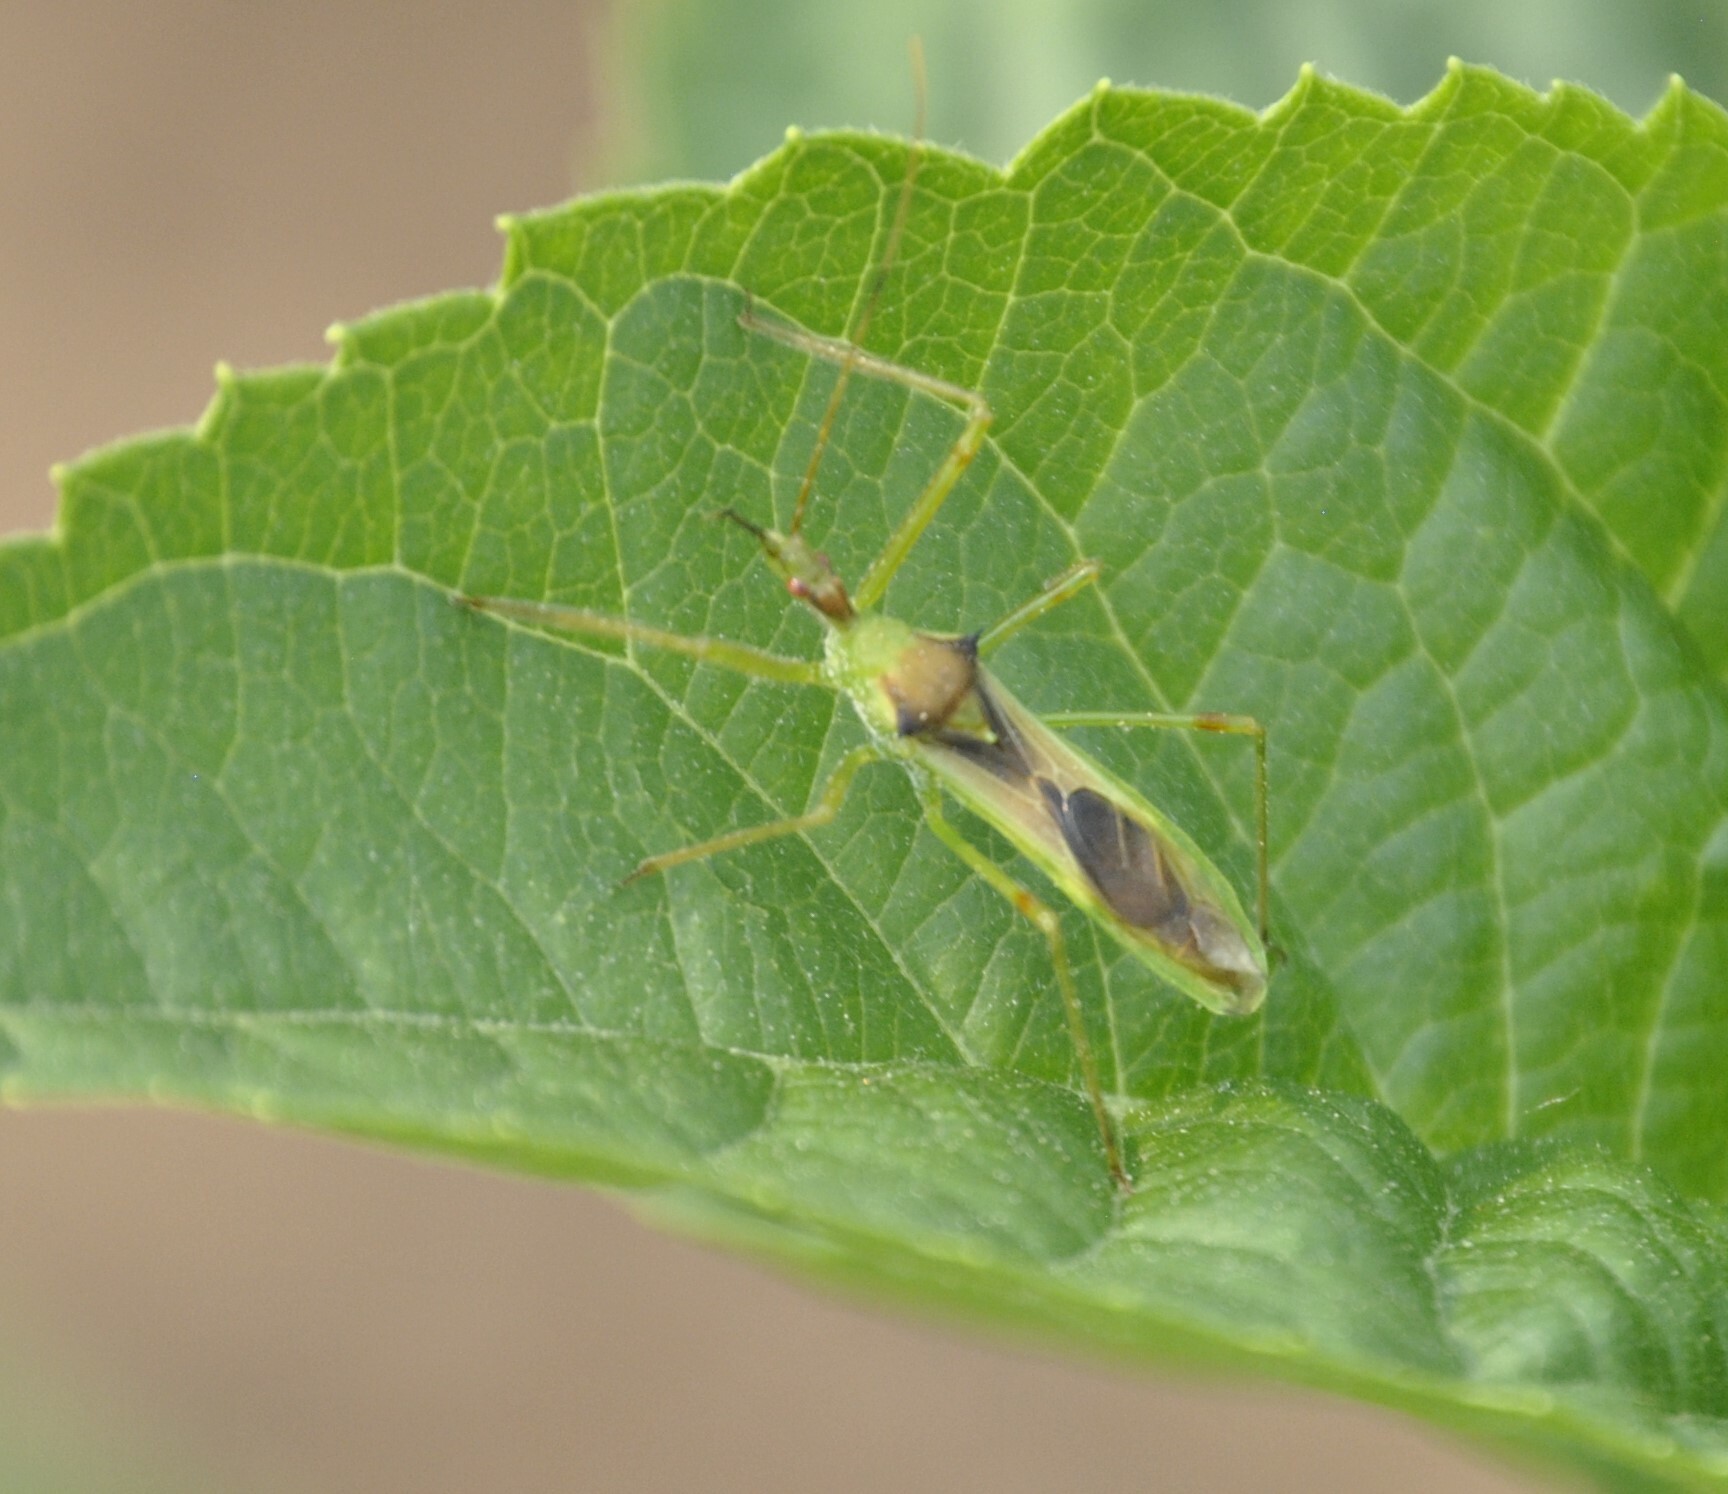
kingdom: Animalia
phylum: Arthropoda
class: Insecta
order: Hemiptera
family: Reduviidae
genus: Zelus
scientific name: Zelus luridus
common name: Pale green assassin bug
